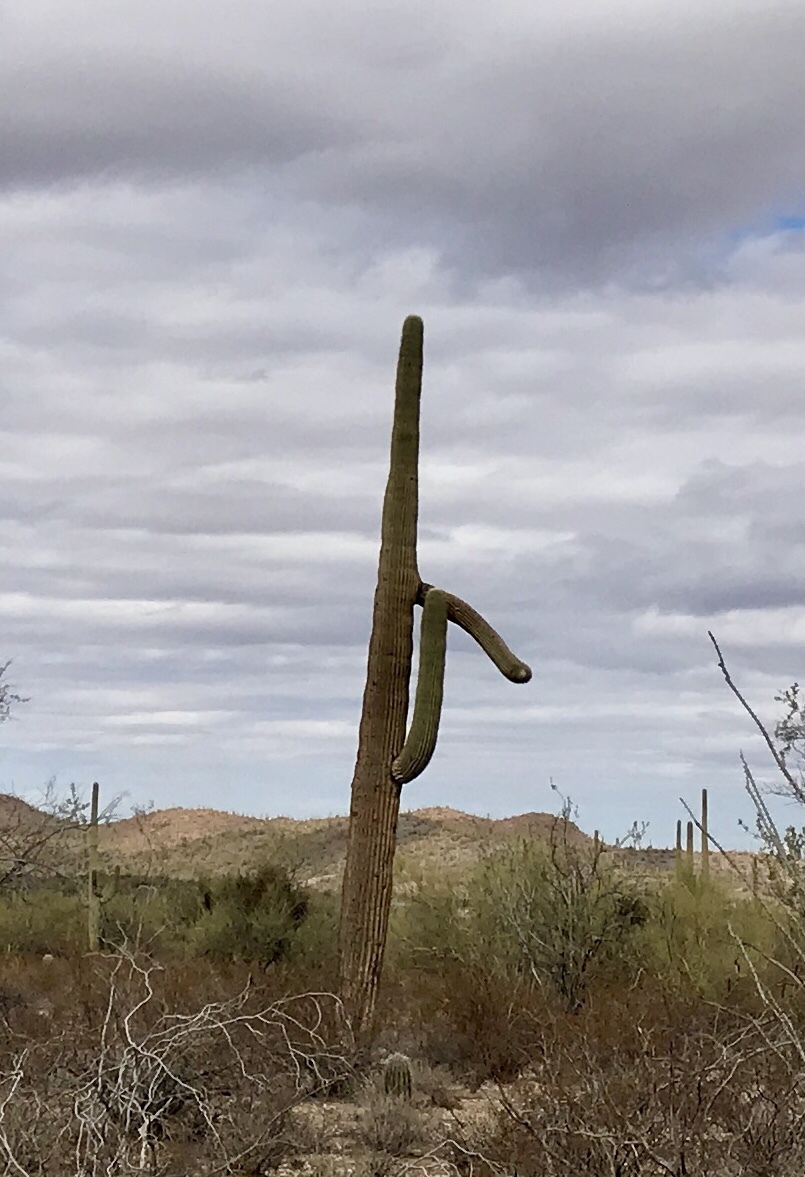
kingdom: Plantae
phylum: Tracheophyta
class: Magnoliopsida
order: Caryophyllales
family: Cactaceae
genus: Carnegiea
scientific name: Carnegiea gigantea
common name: Saguaro
